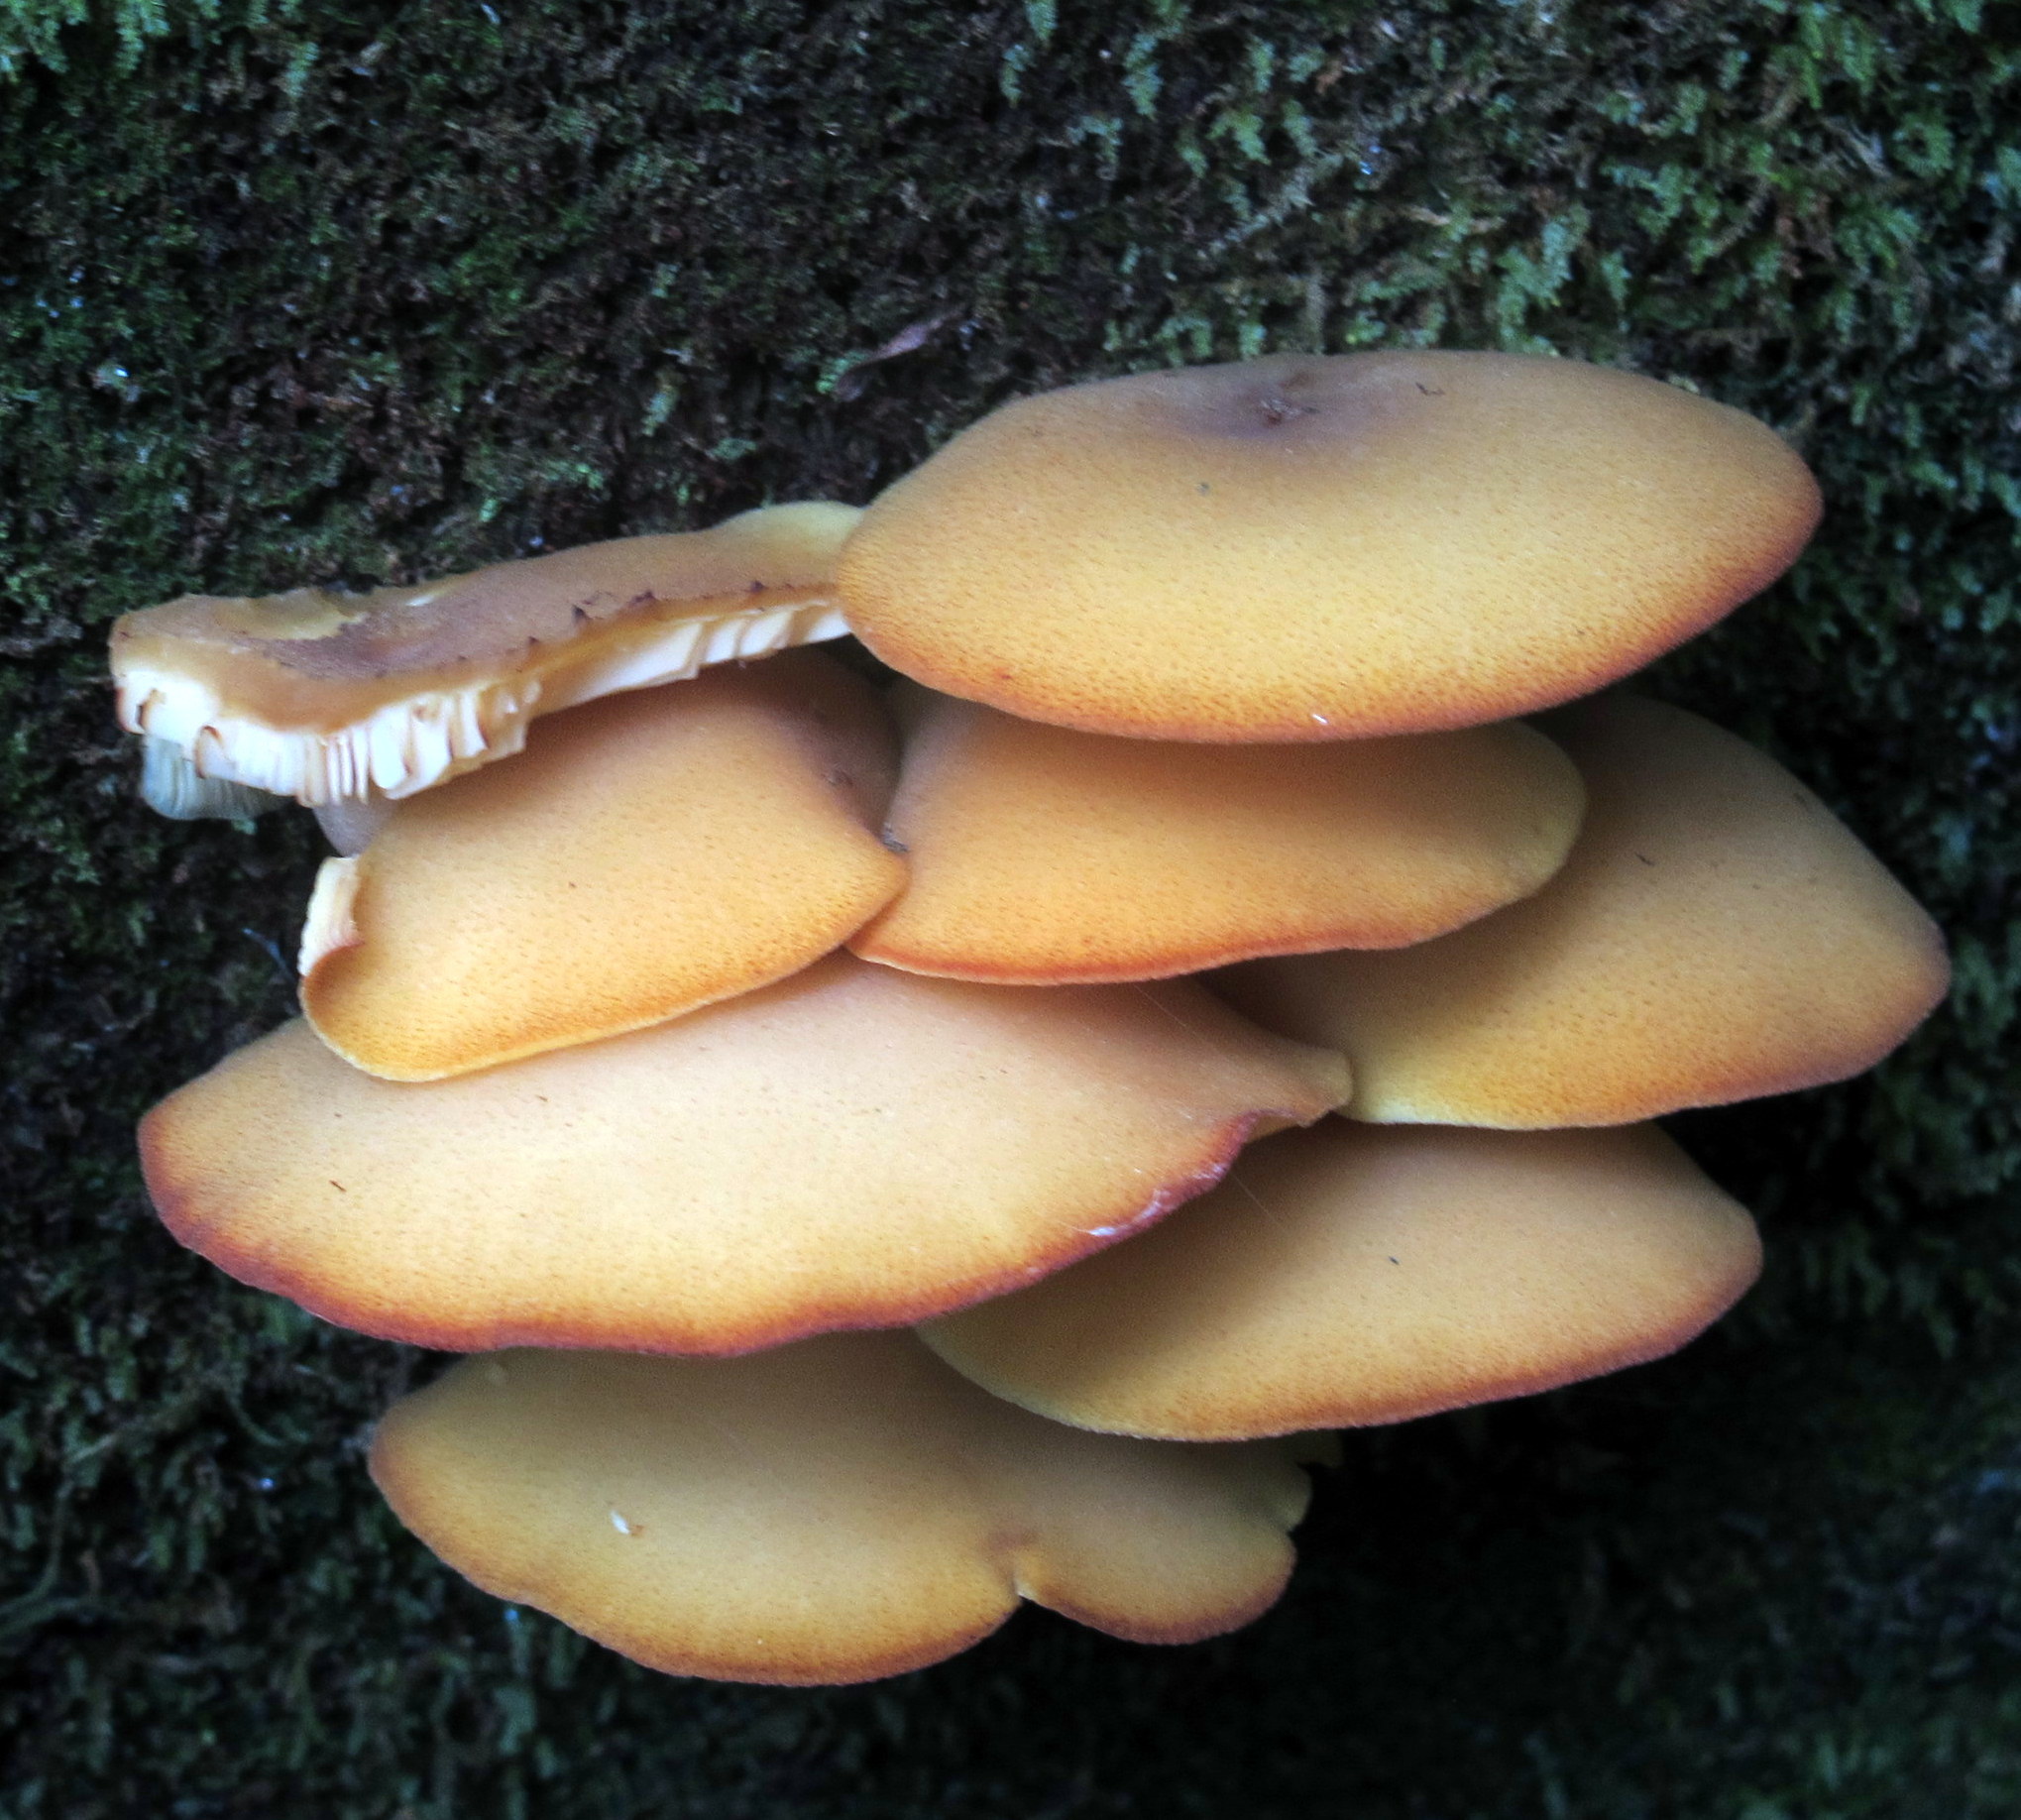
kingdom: Fungi
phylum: Basidiomycota
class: Agaricomycetes
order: Agaricales
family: Tricholomataceae
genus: Tricholomopsis
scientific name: Tricholomopsis decora
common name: Prunes and custard
